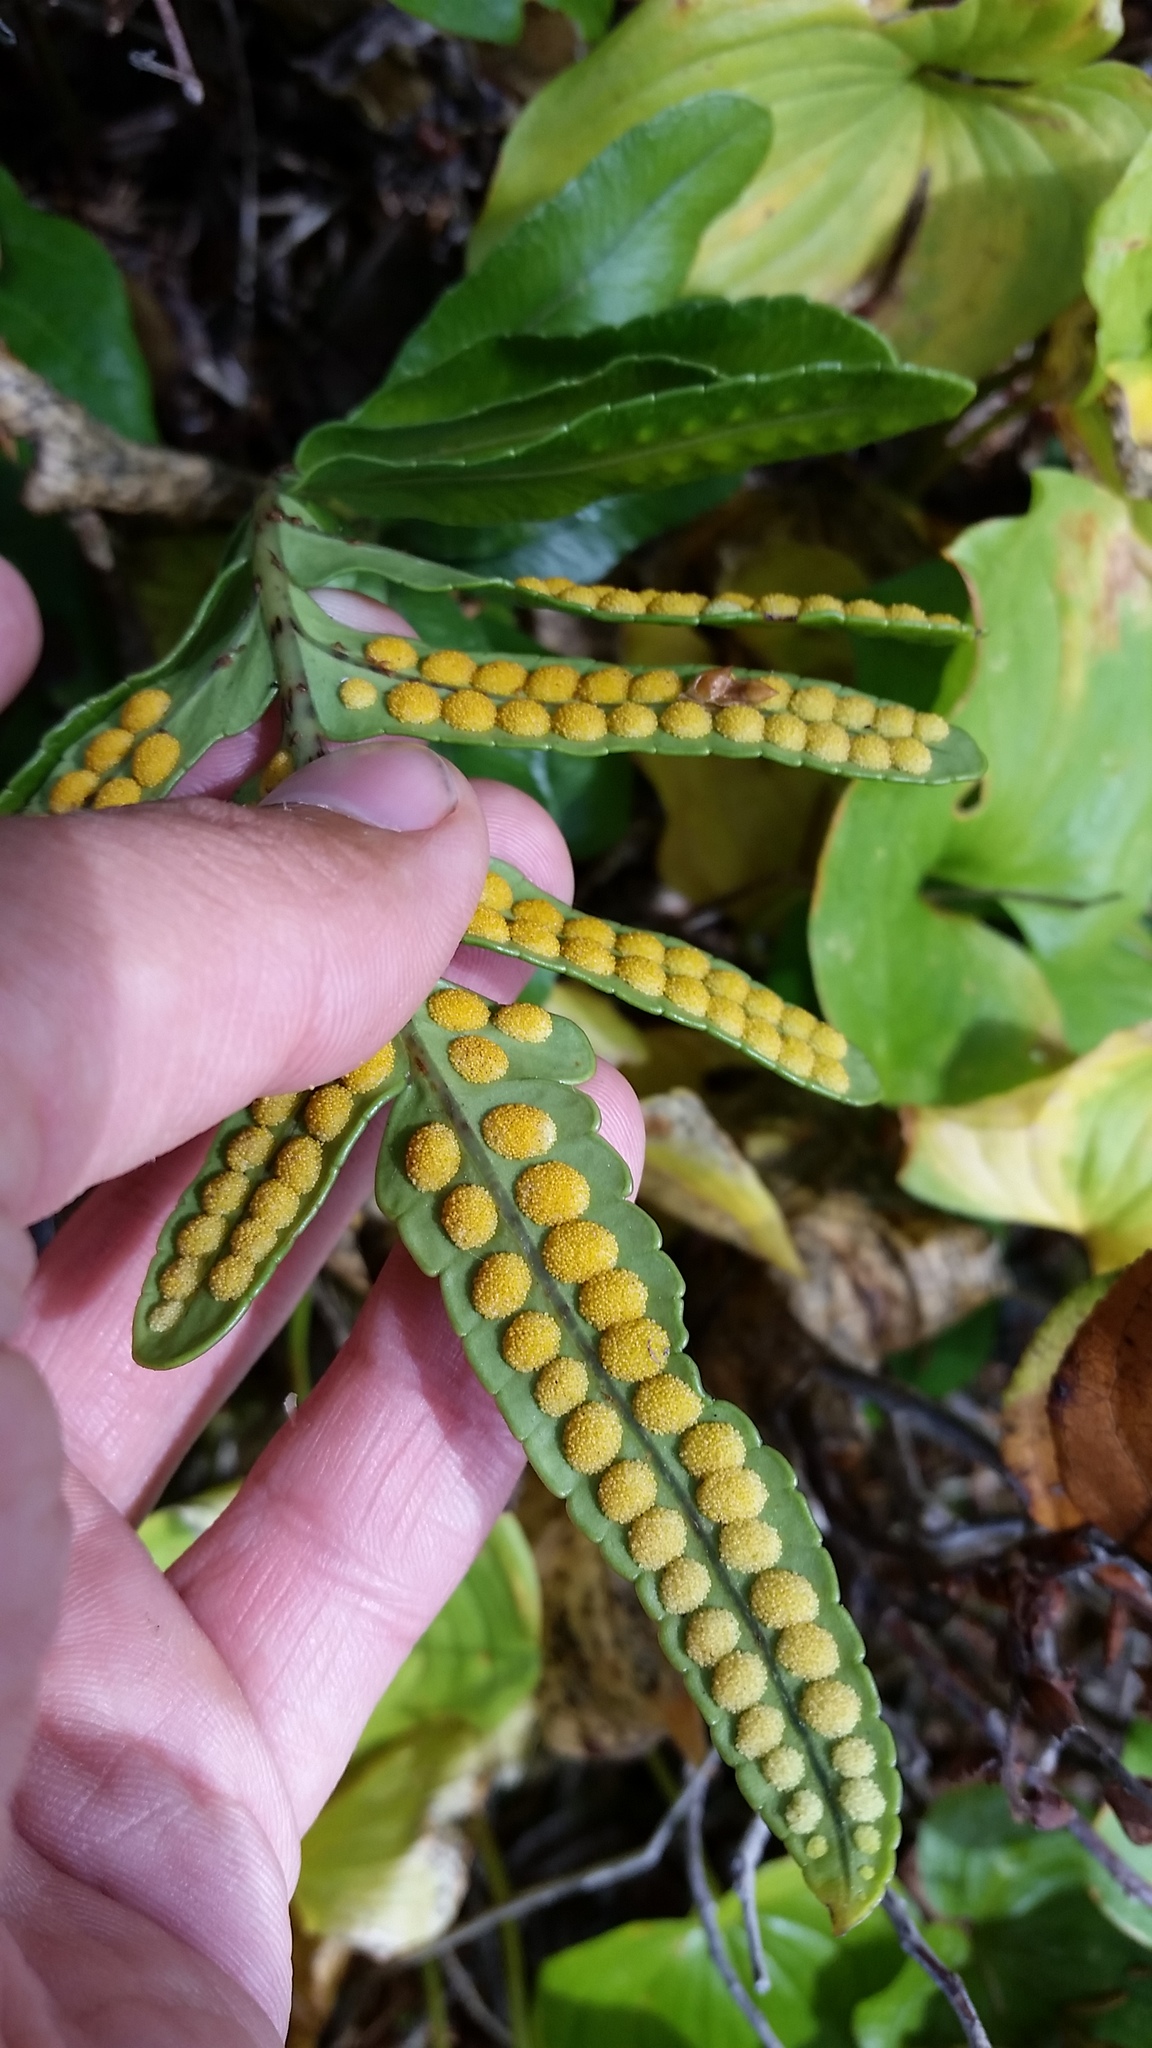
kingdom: Plantae
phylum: Tracheophyta
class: Polypodiopsida
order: Polypodiales
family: Polypodiaceae
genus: Polypodium
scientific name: Polypodium scouleri
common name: Scouler's polypody
